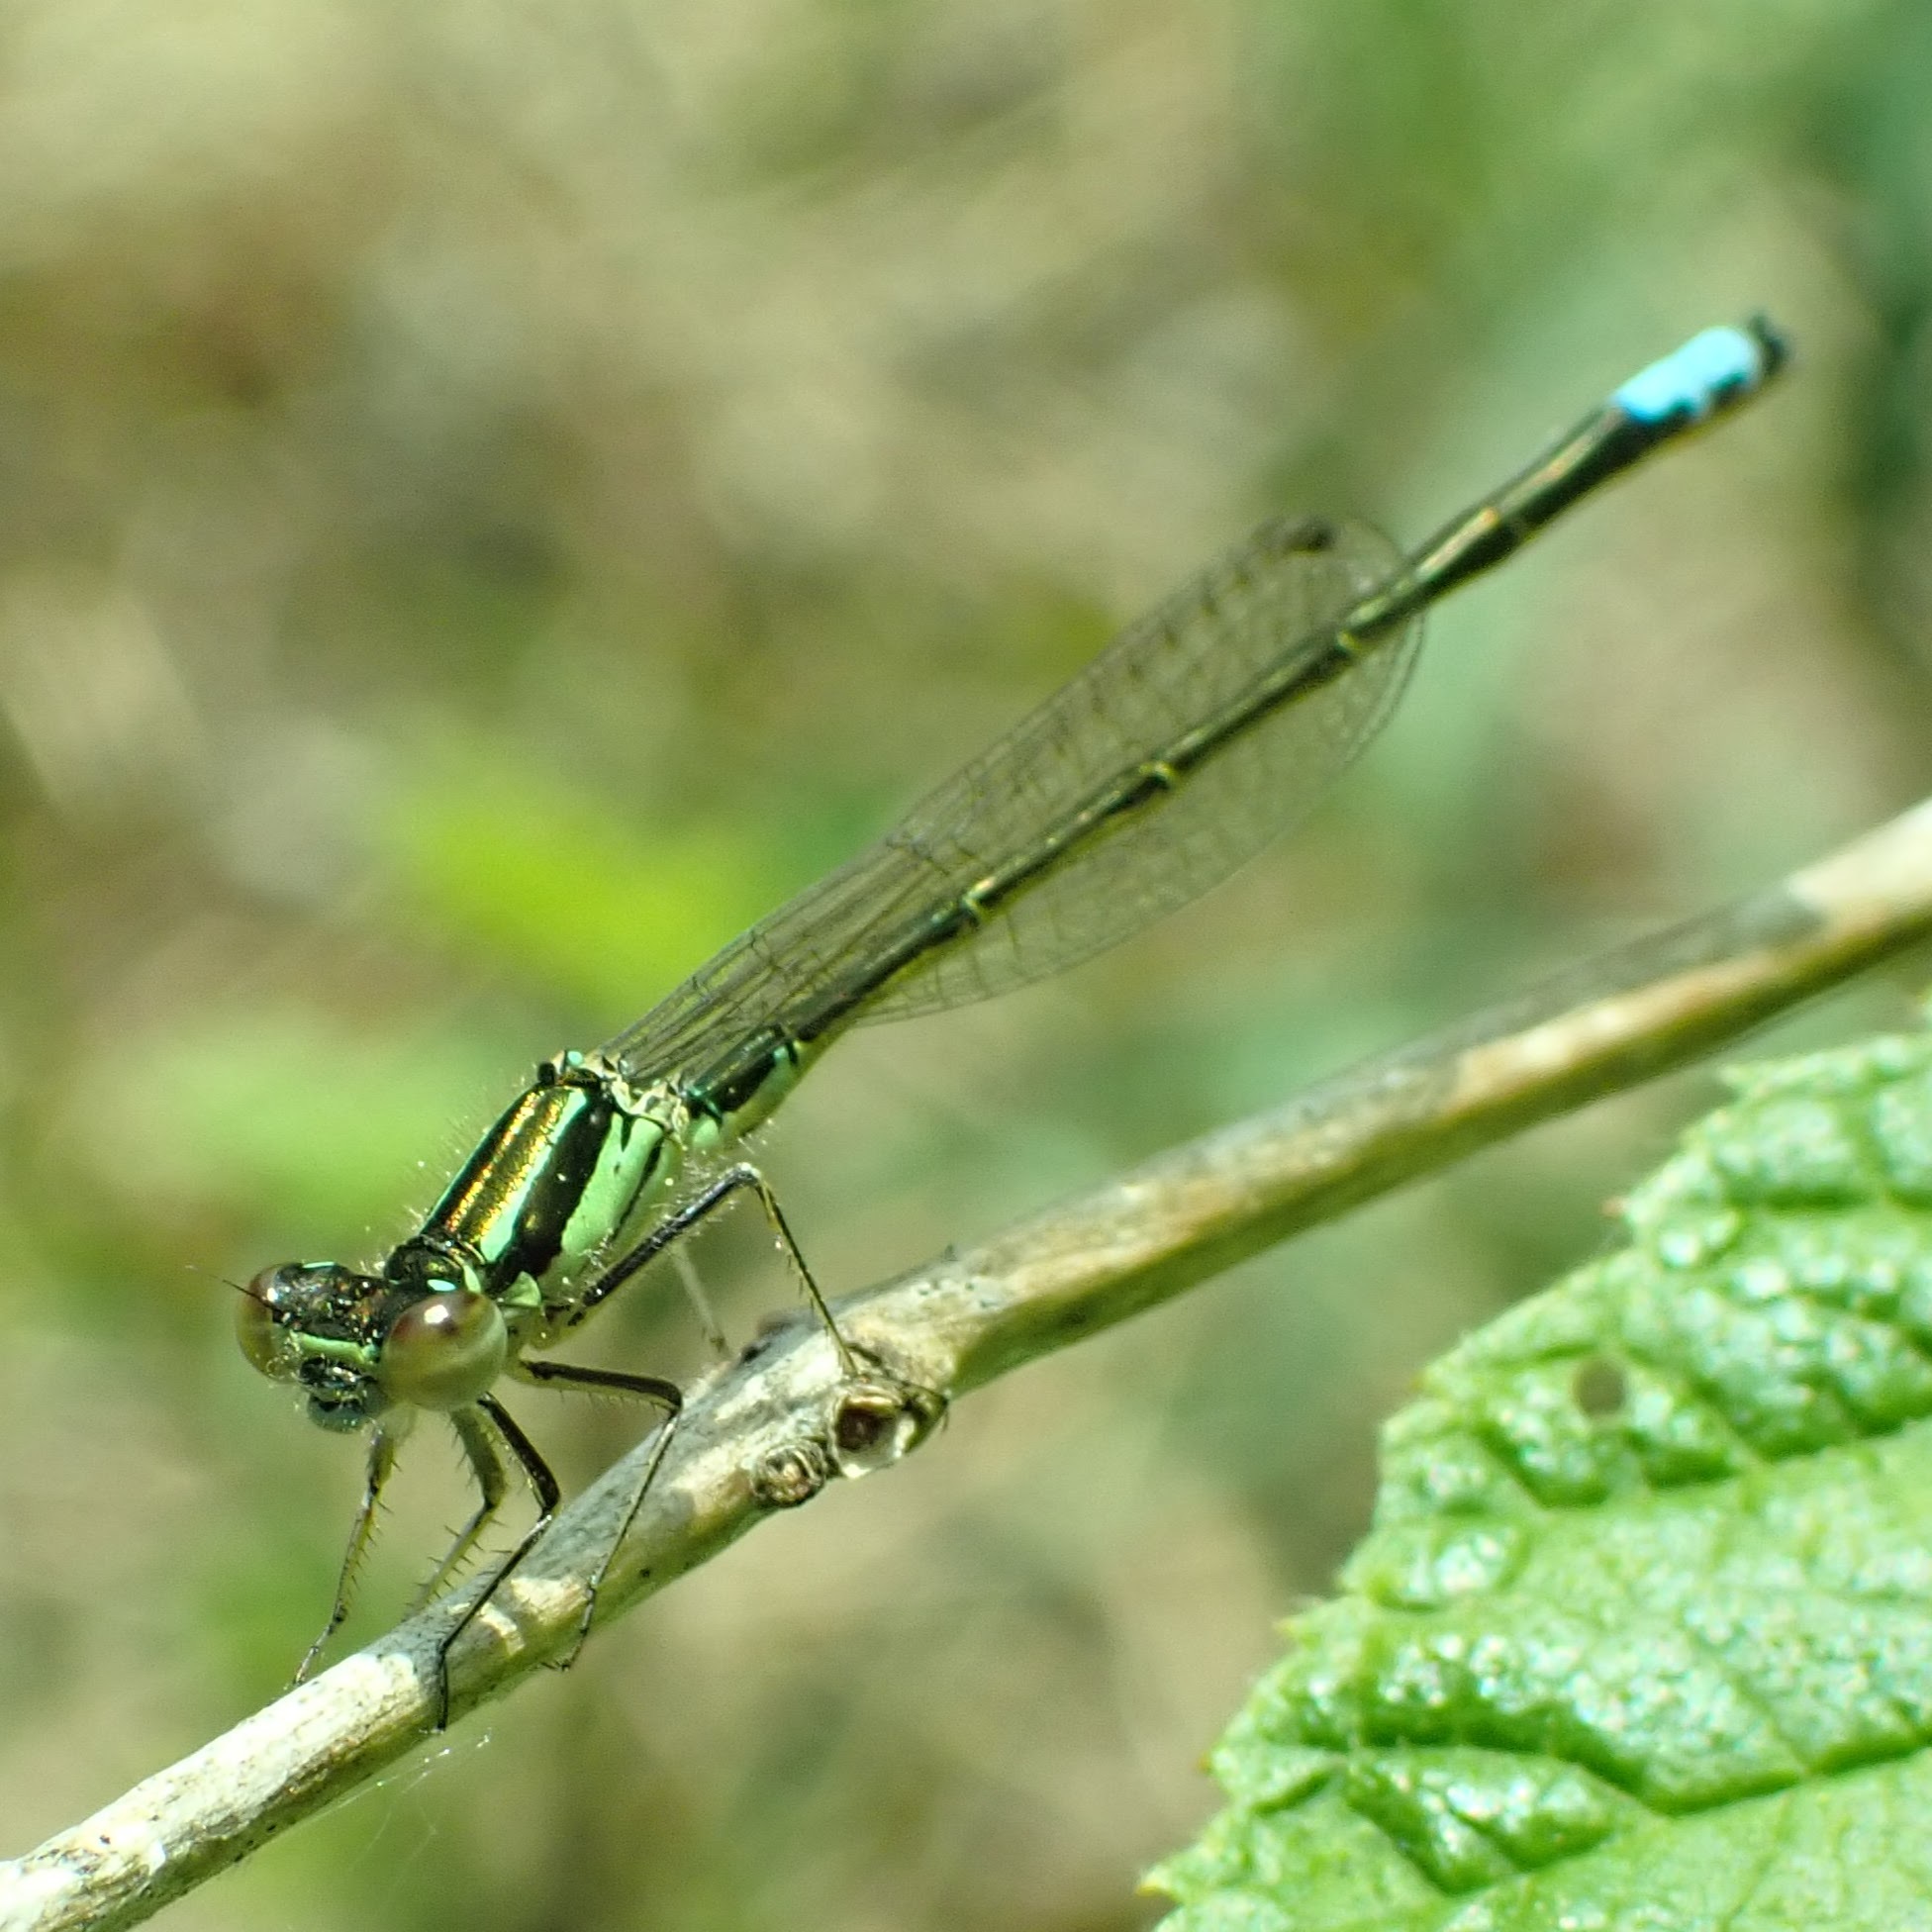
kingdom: Animalia
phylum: Arthropoda
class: Insecta
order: Odonata
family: Coenagrionidae
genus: Ischnura
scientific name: Ischnura verticalis
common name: Eastern forktail
